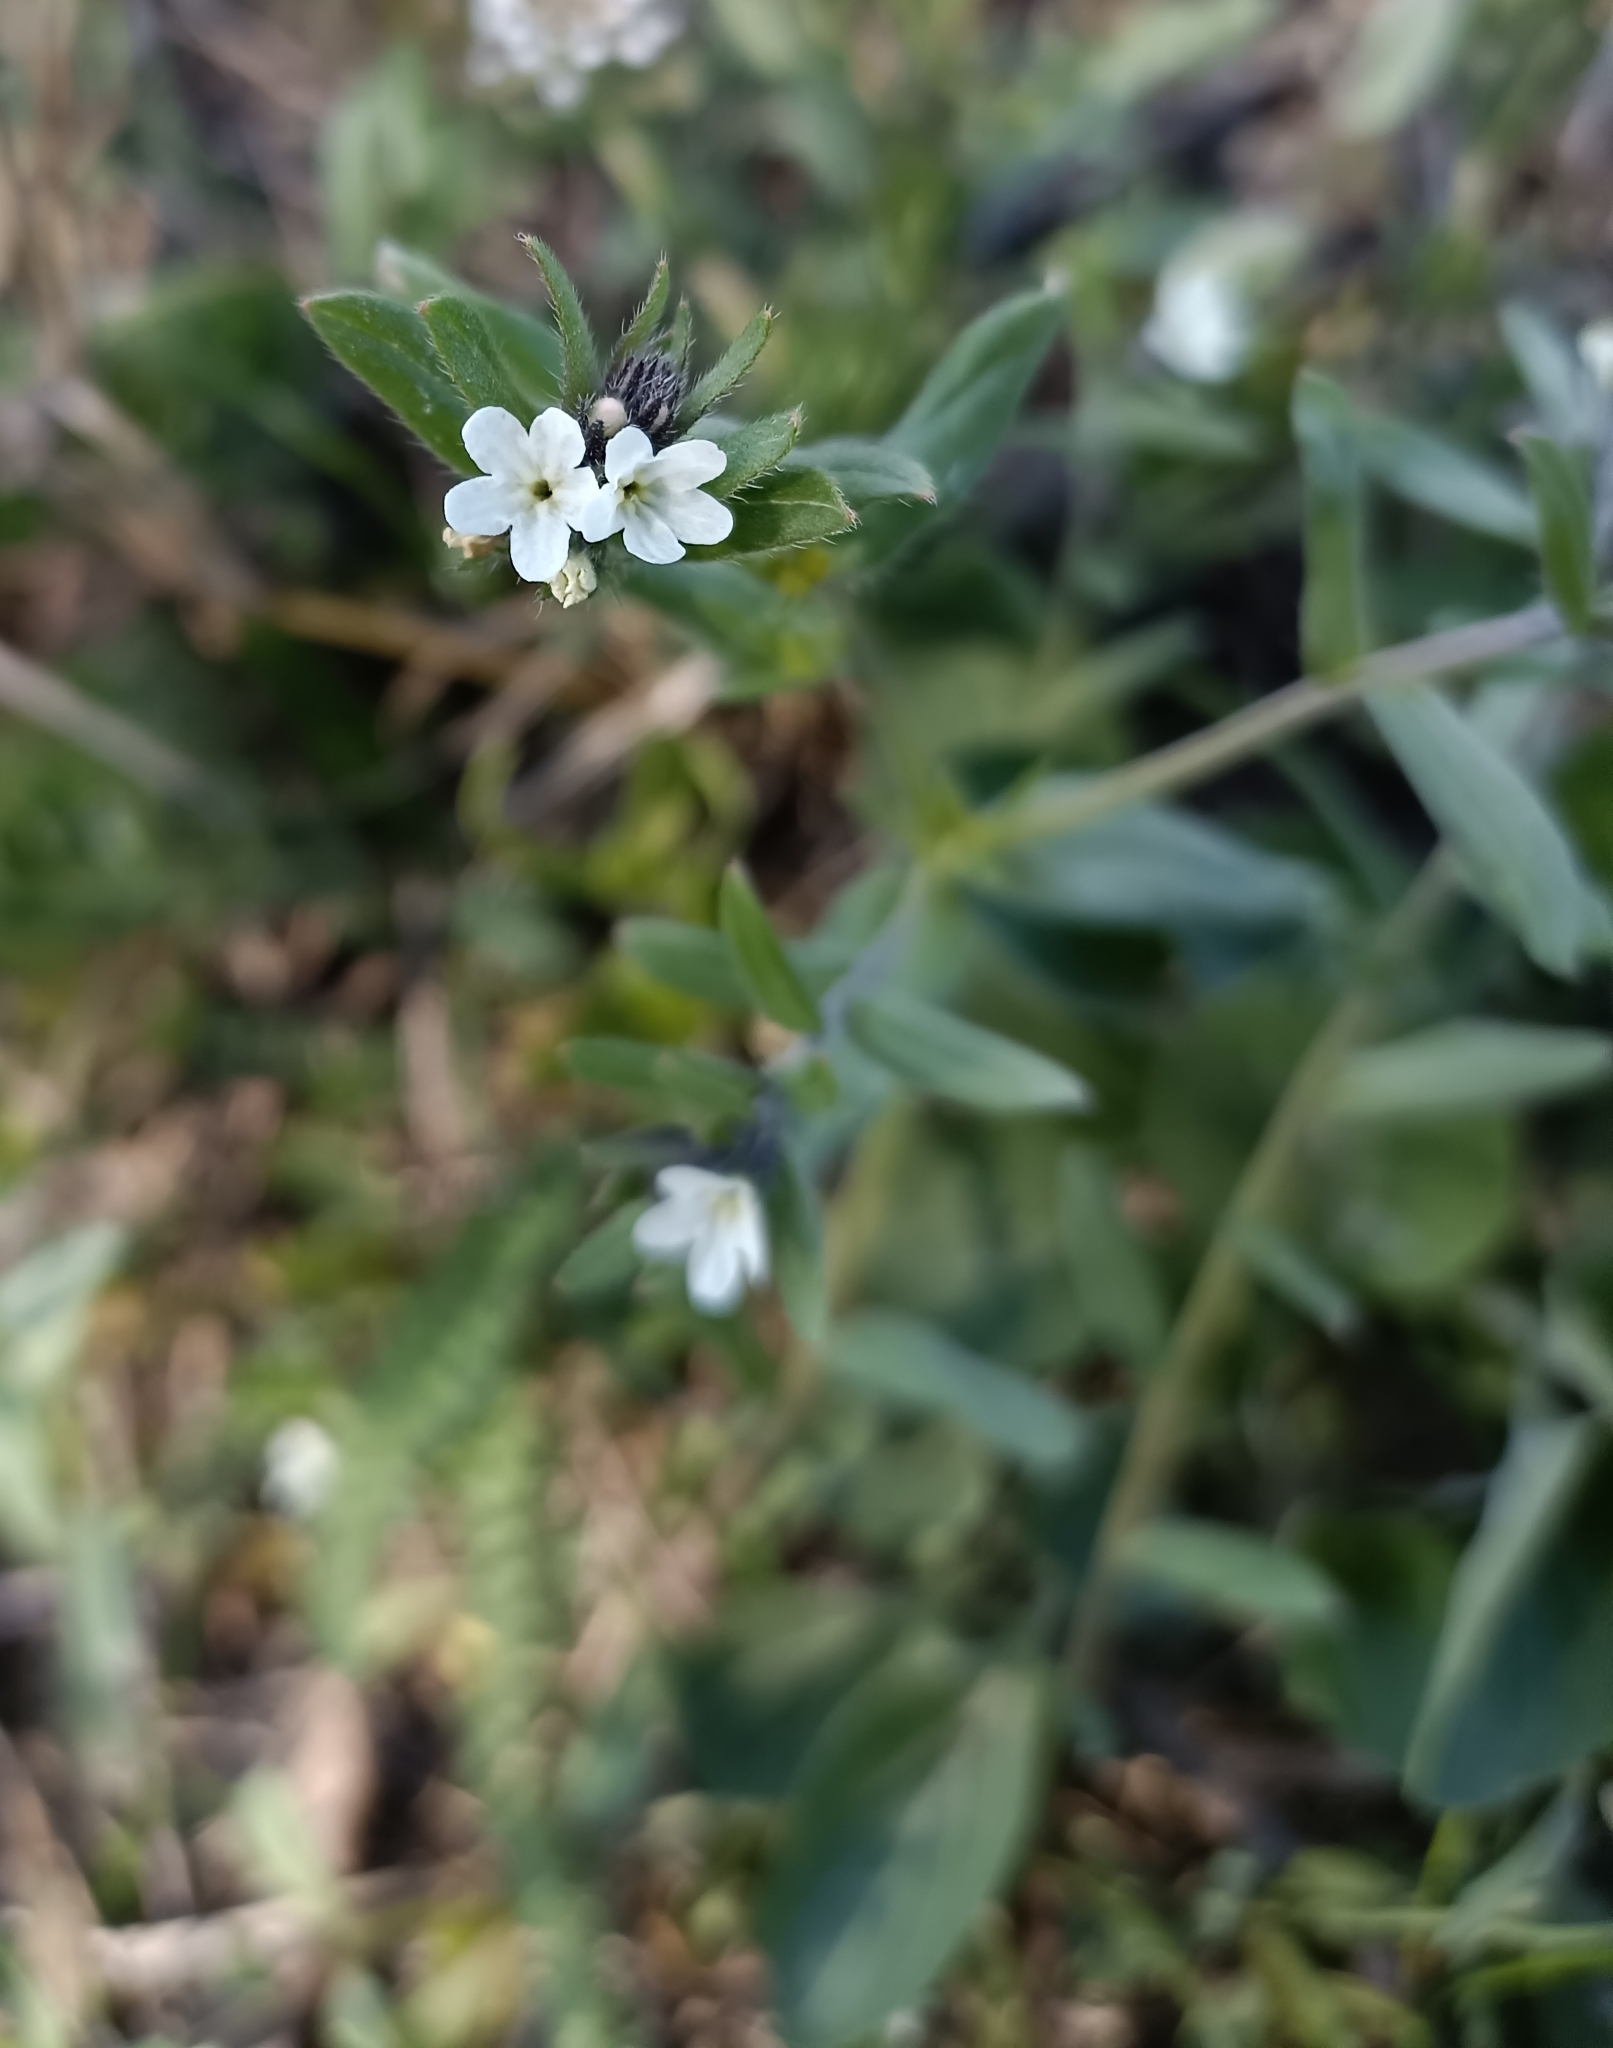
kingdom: Plantae
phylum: Tracheophyta
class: Magnoliopsida
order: Boraginales
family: Boraginaceae
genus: Buglossoides
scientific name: Buglossoides arvensis
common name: Corn gromwell
